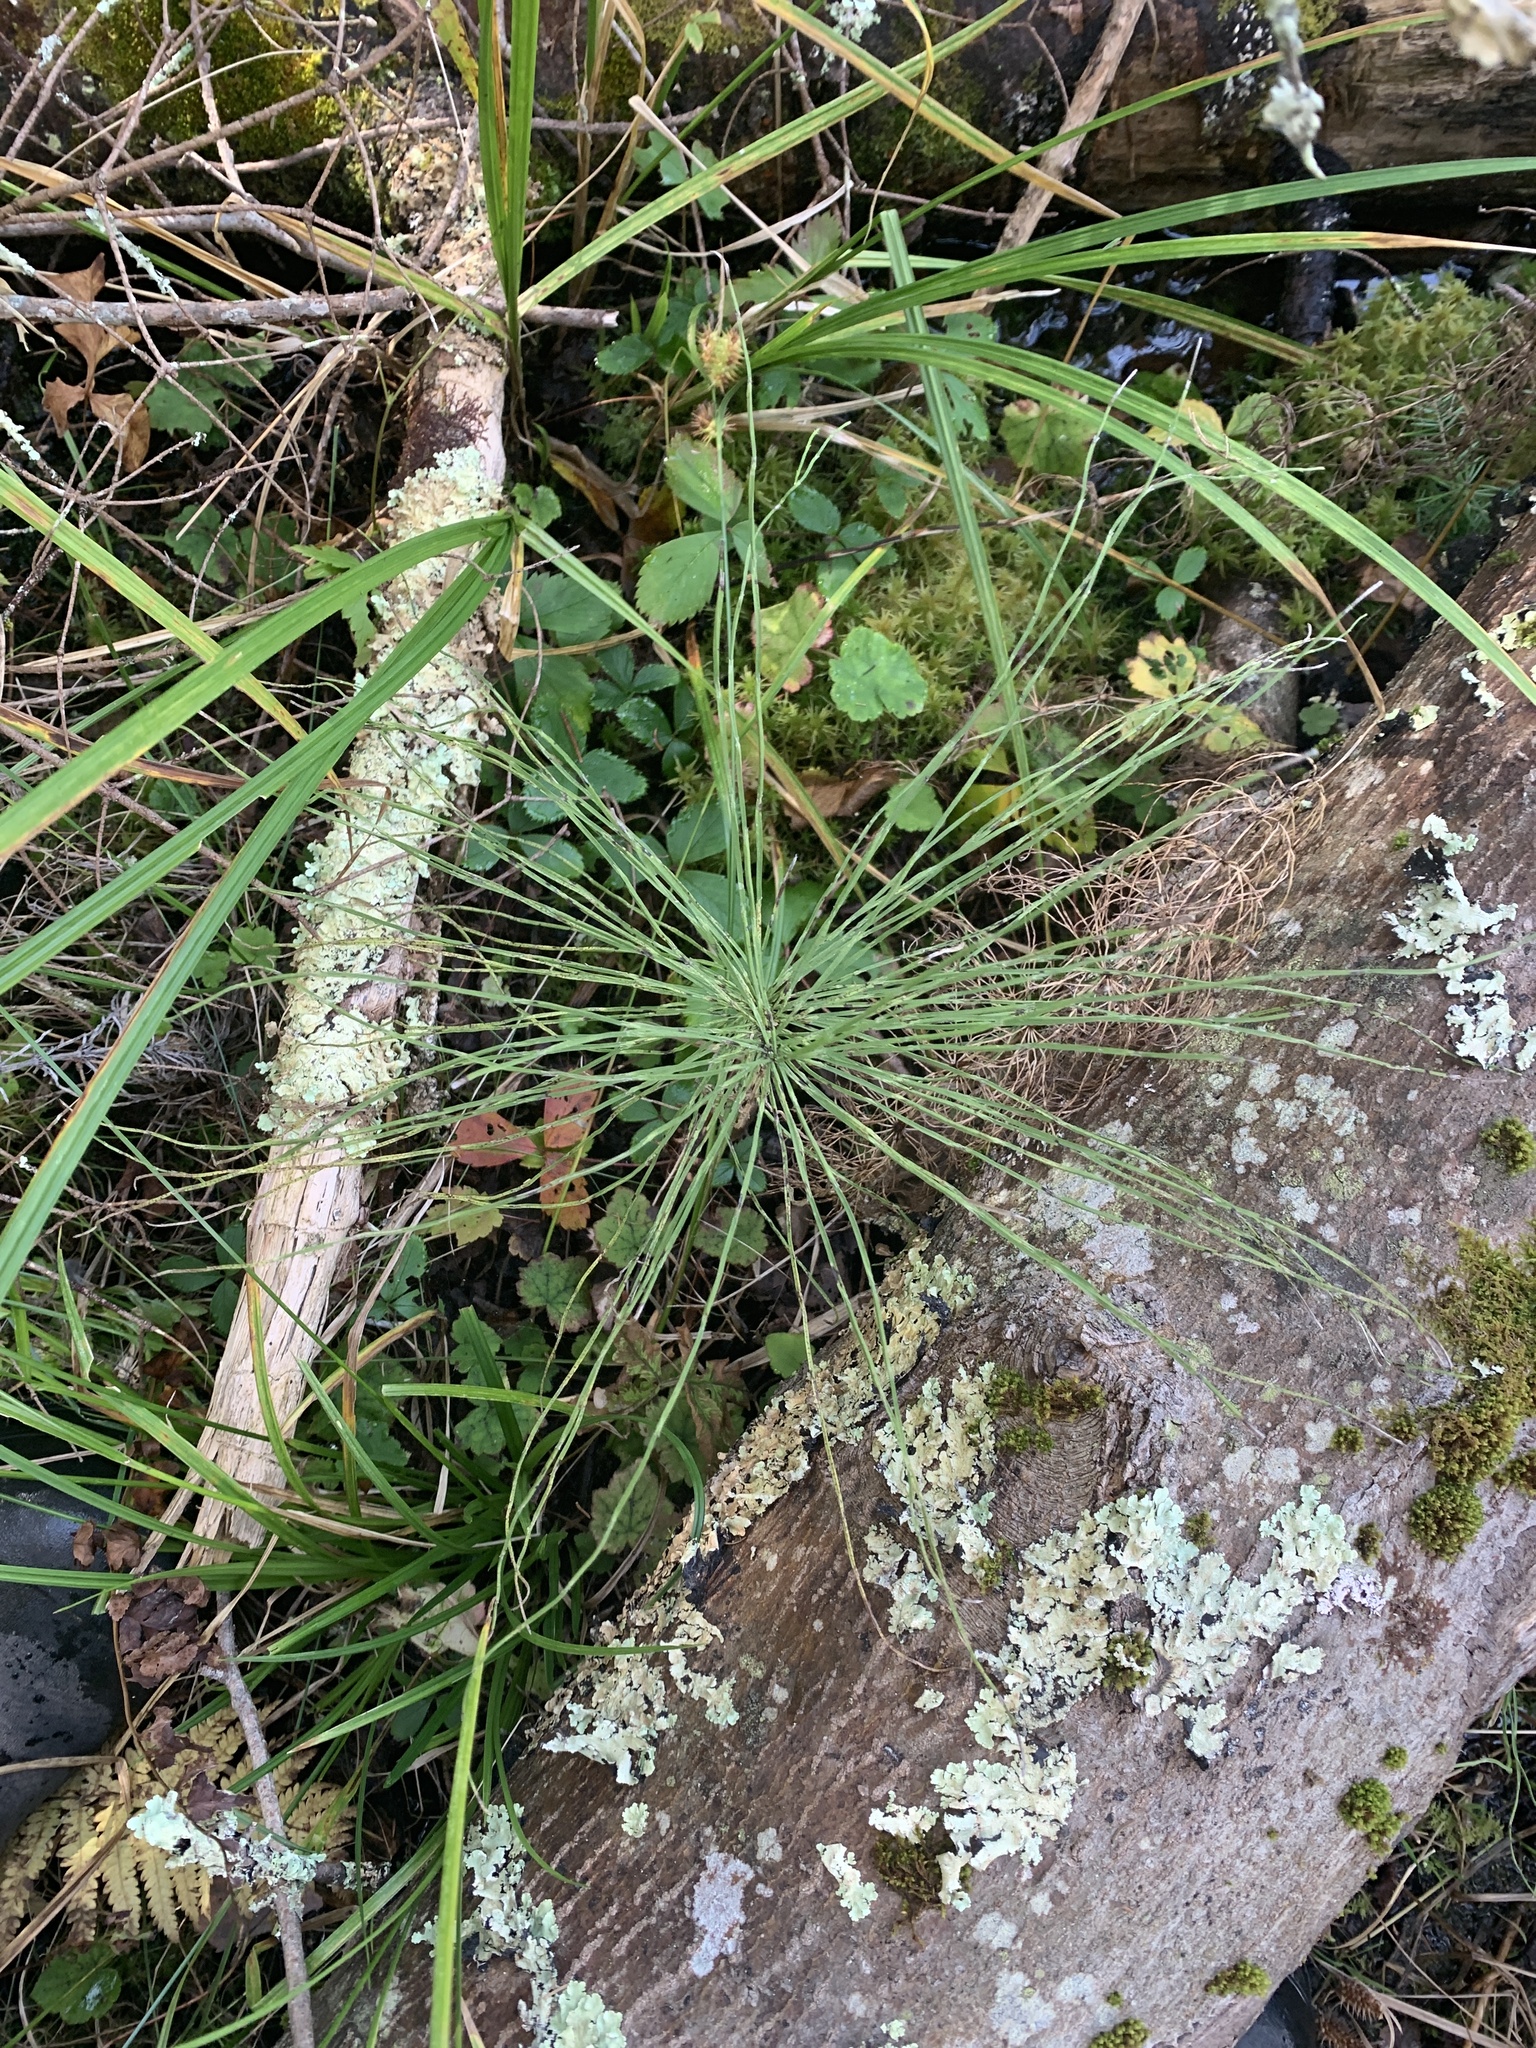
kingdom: Plantae
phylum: Tracheophyta
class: Polypodiopsida
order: Equisetales
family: Equisetaceae
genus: Equisetum
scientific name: Equisetum arvense
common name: Field horsetail
